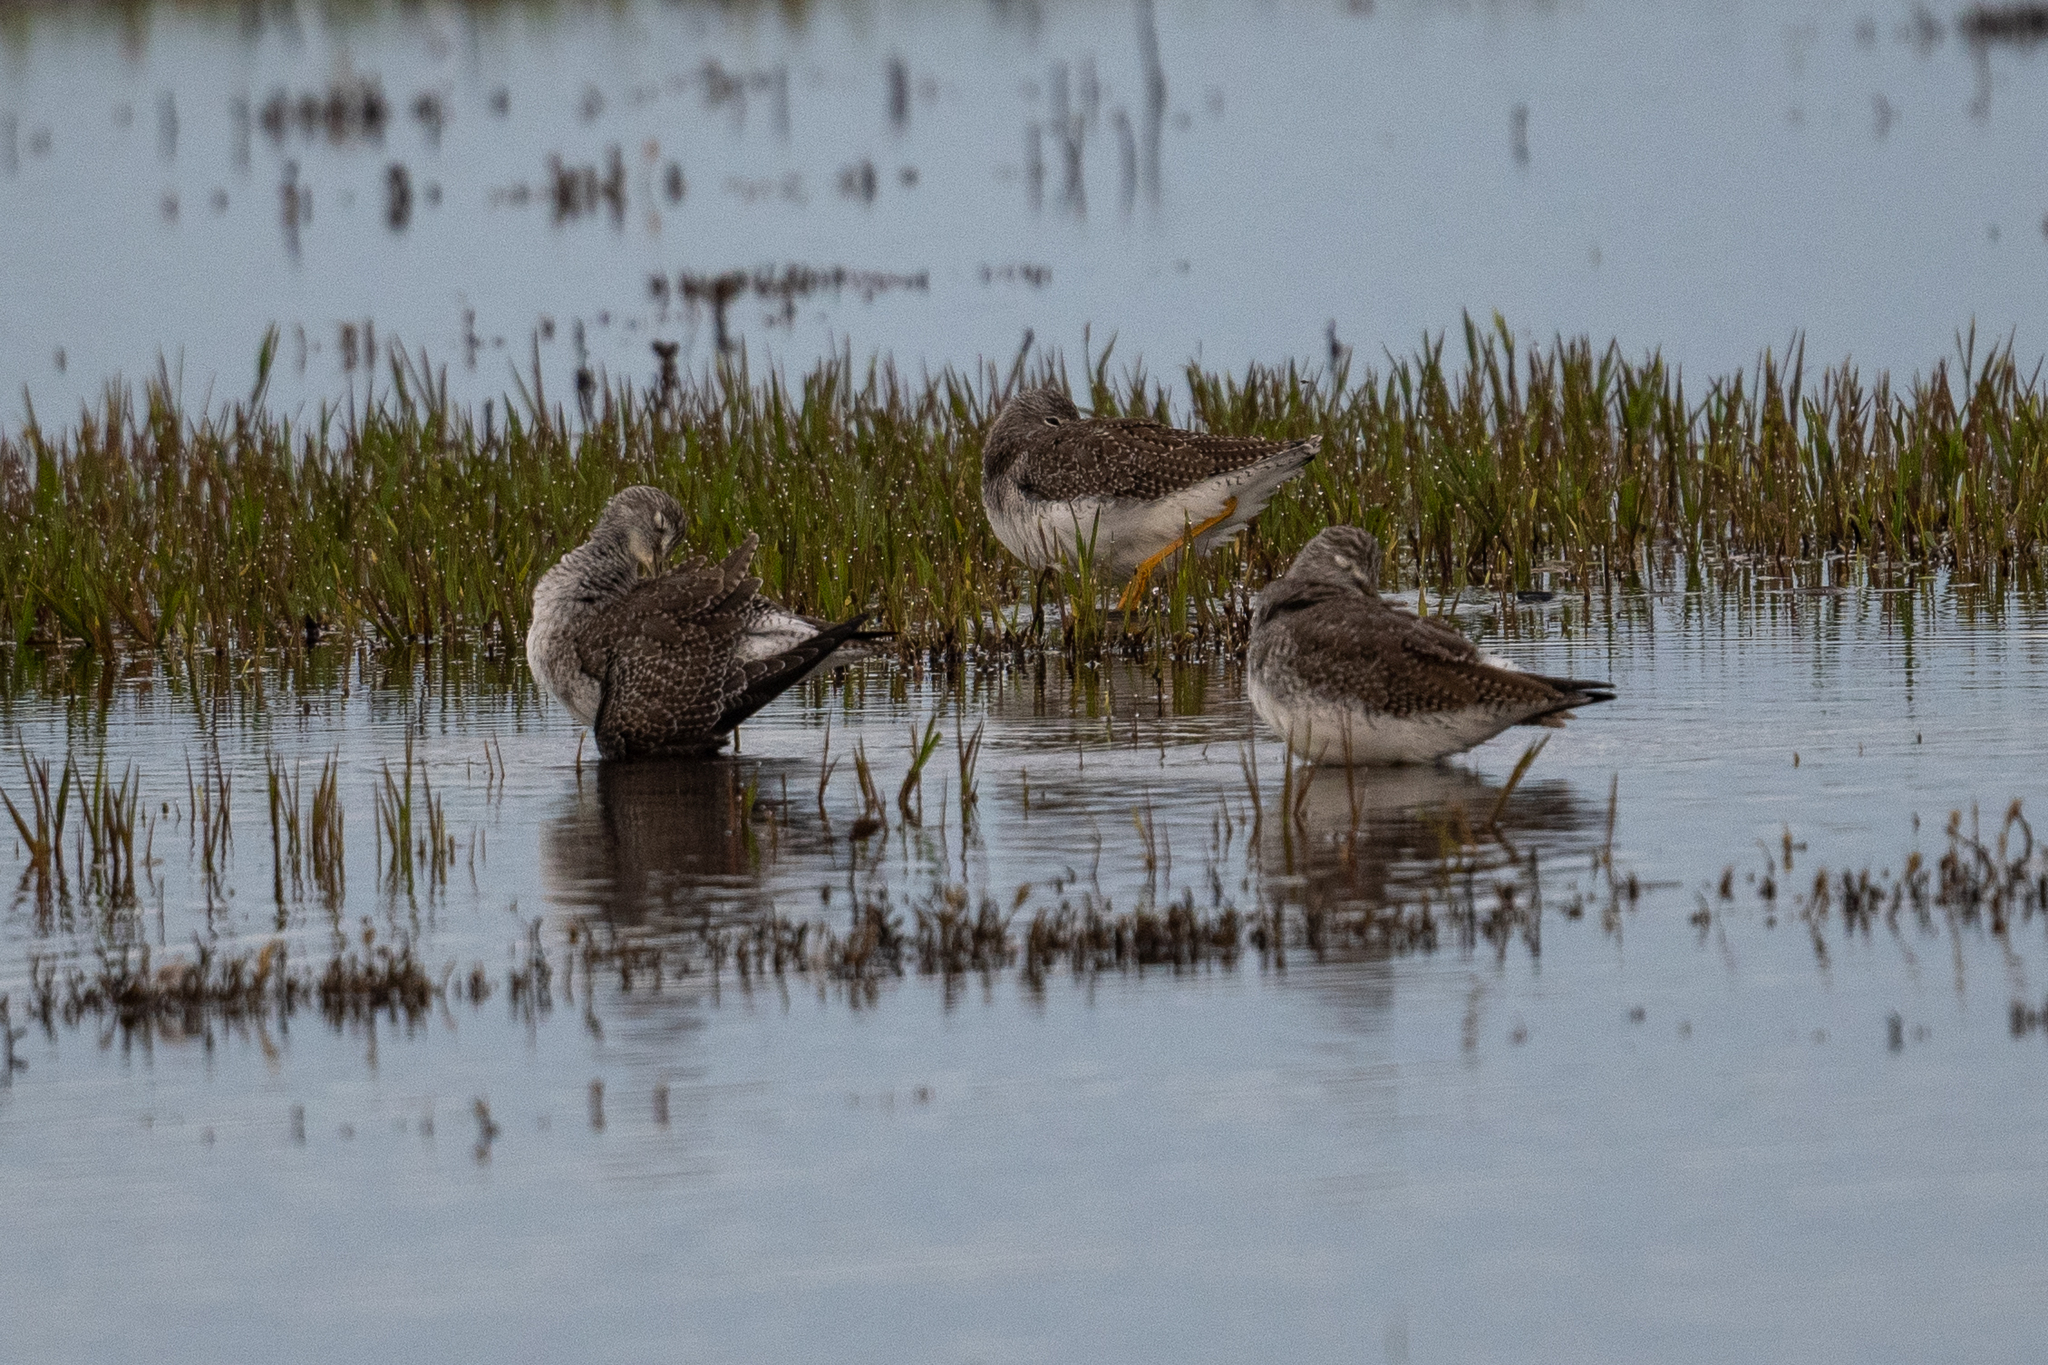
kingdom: Animalia
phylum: Chordata
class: Aves
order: Charadriiformes
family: Scolopacidae
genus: Tringa
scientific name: Tringa melanoleuca
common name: Greater yellowlegs
